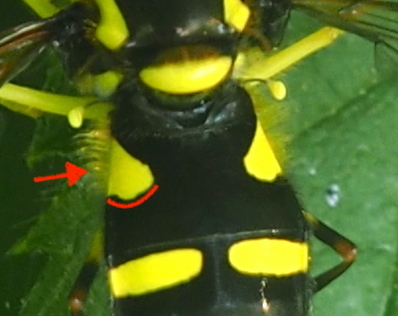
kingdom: Animalia
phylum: Arthropoda
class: Insecta
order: Diptera
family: Syrphidae
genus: Philhelius
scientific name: Philhelius stackelbergi
